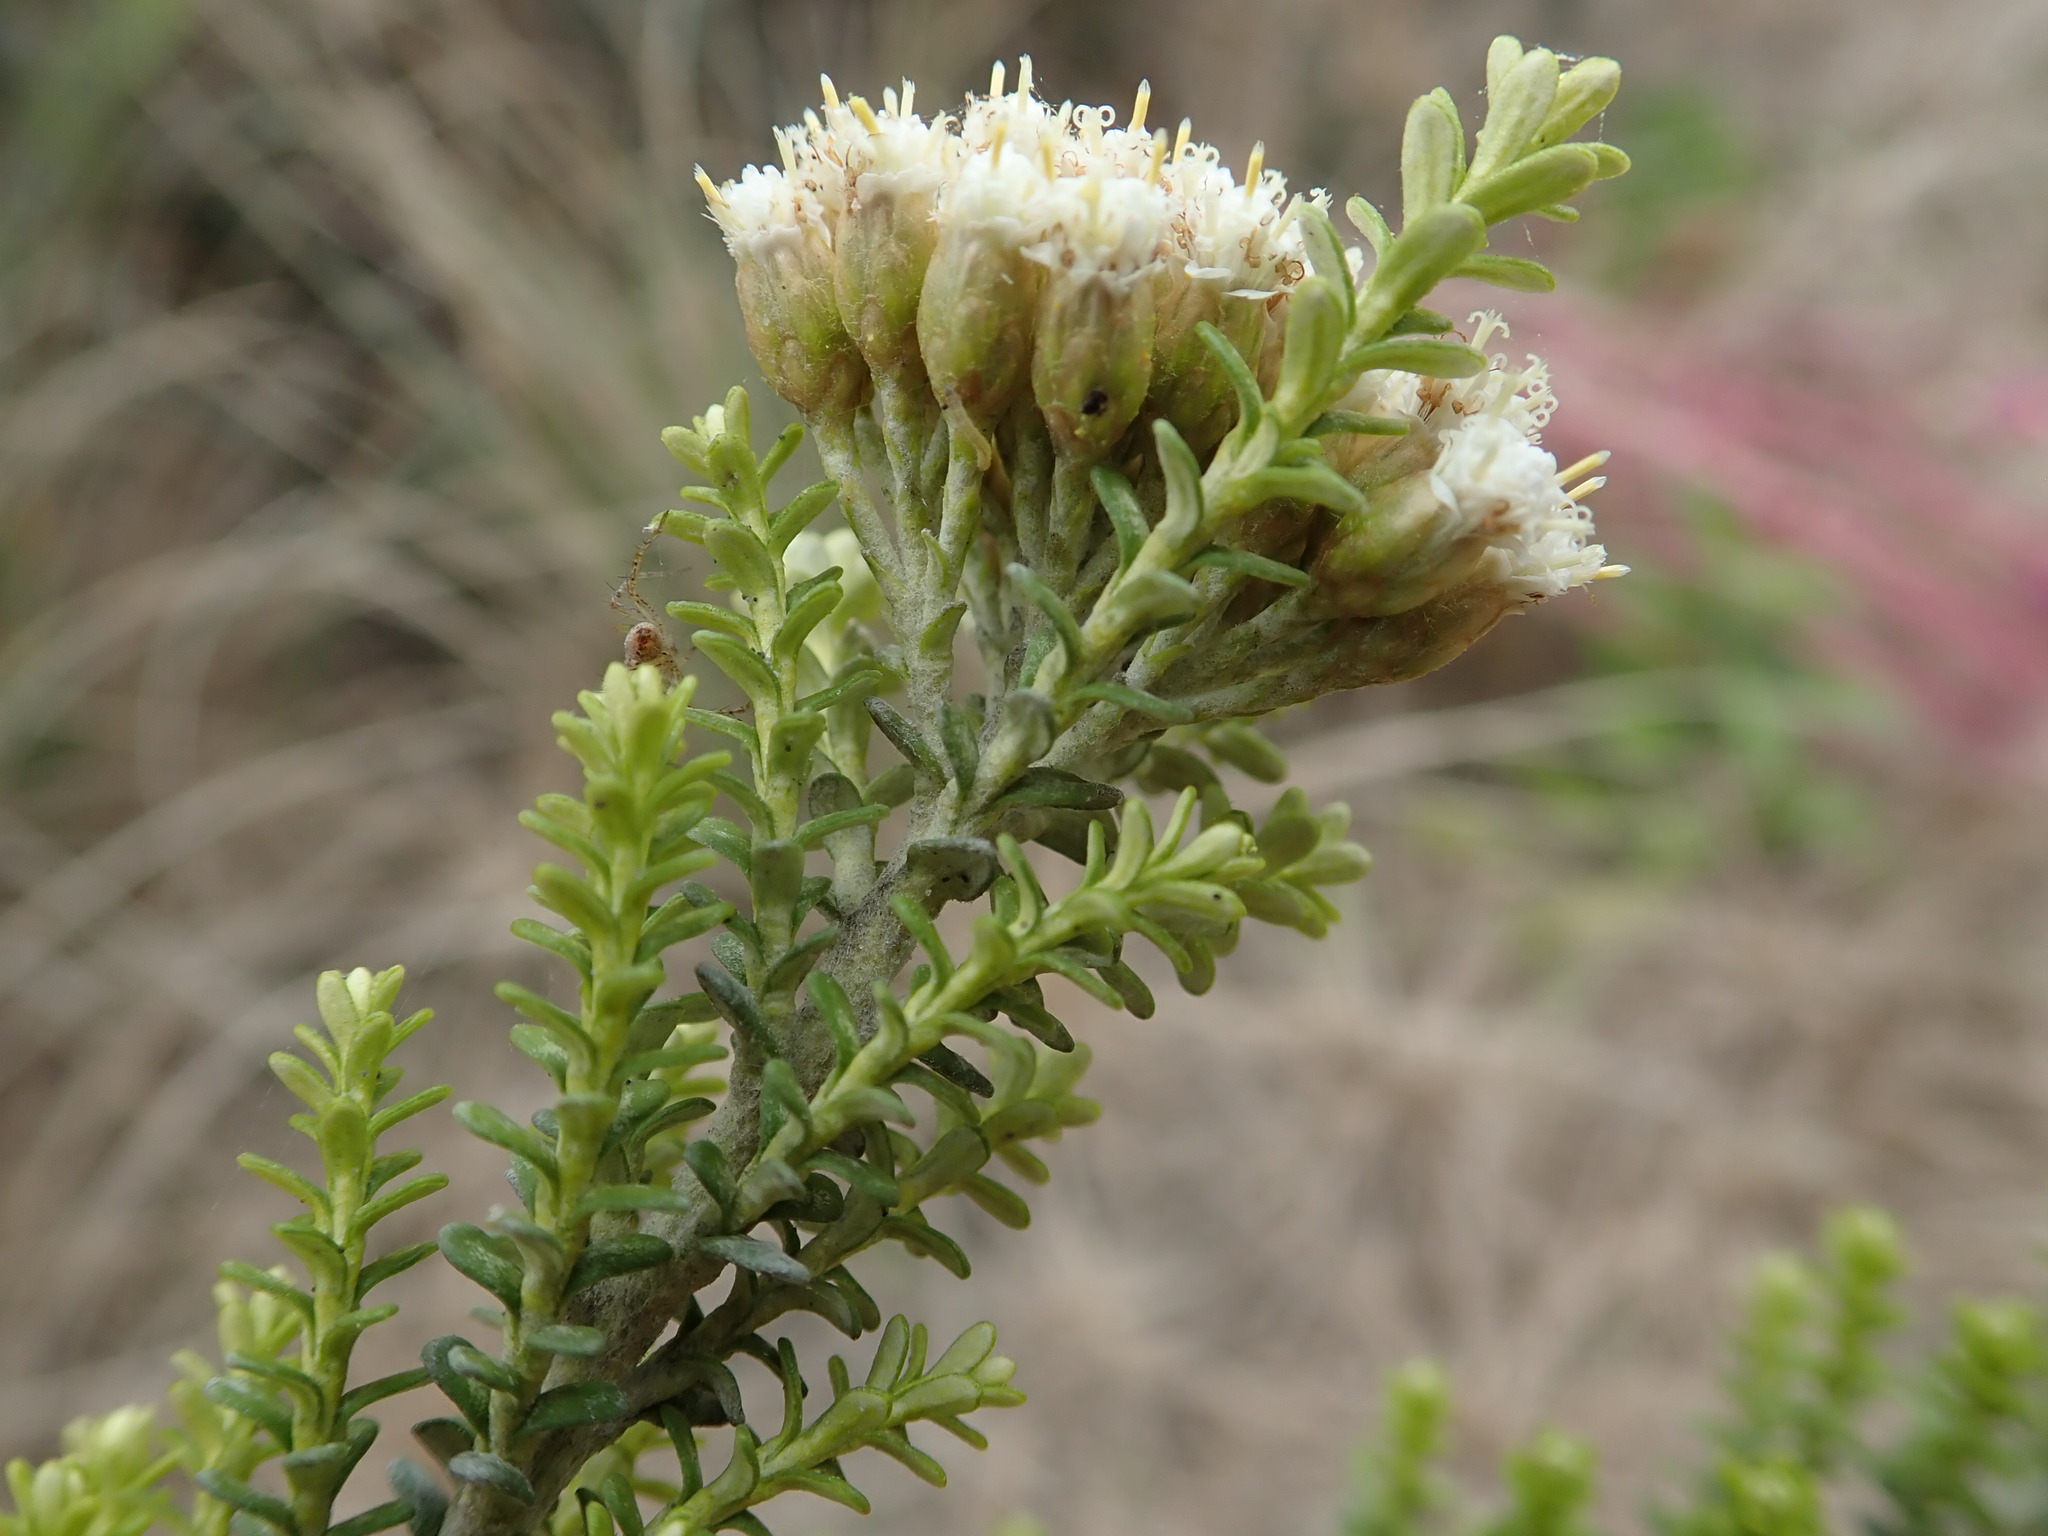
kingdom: Animalia
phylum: Arthropoda
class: Arachnida
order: Araneae
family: Oxyopidae
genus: Oxyopes
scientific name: Oxyopes gracilipes
